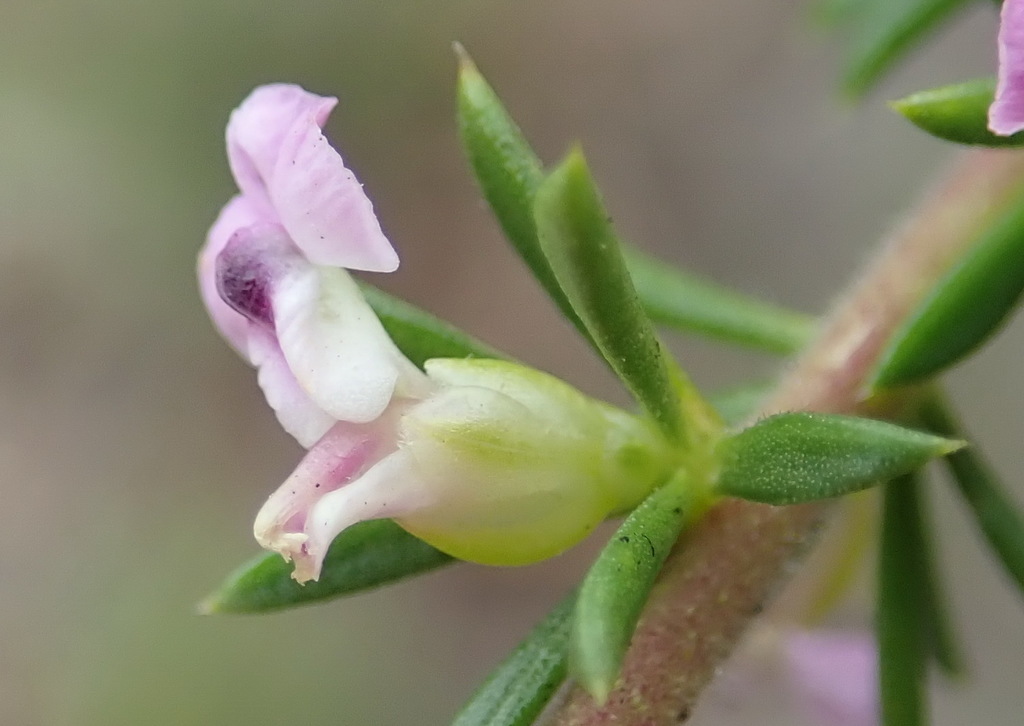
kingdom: Plantae
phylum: Tracheophyta
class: Magnoliopsida
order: Fabales
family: Polygalaceae
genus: Muraltia
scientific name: Muraltia ericifolia
